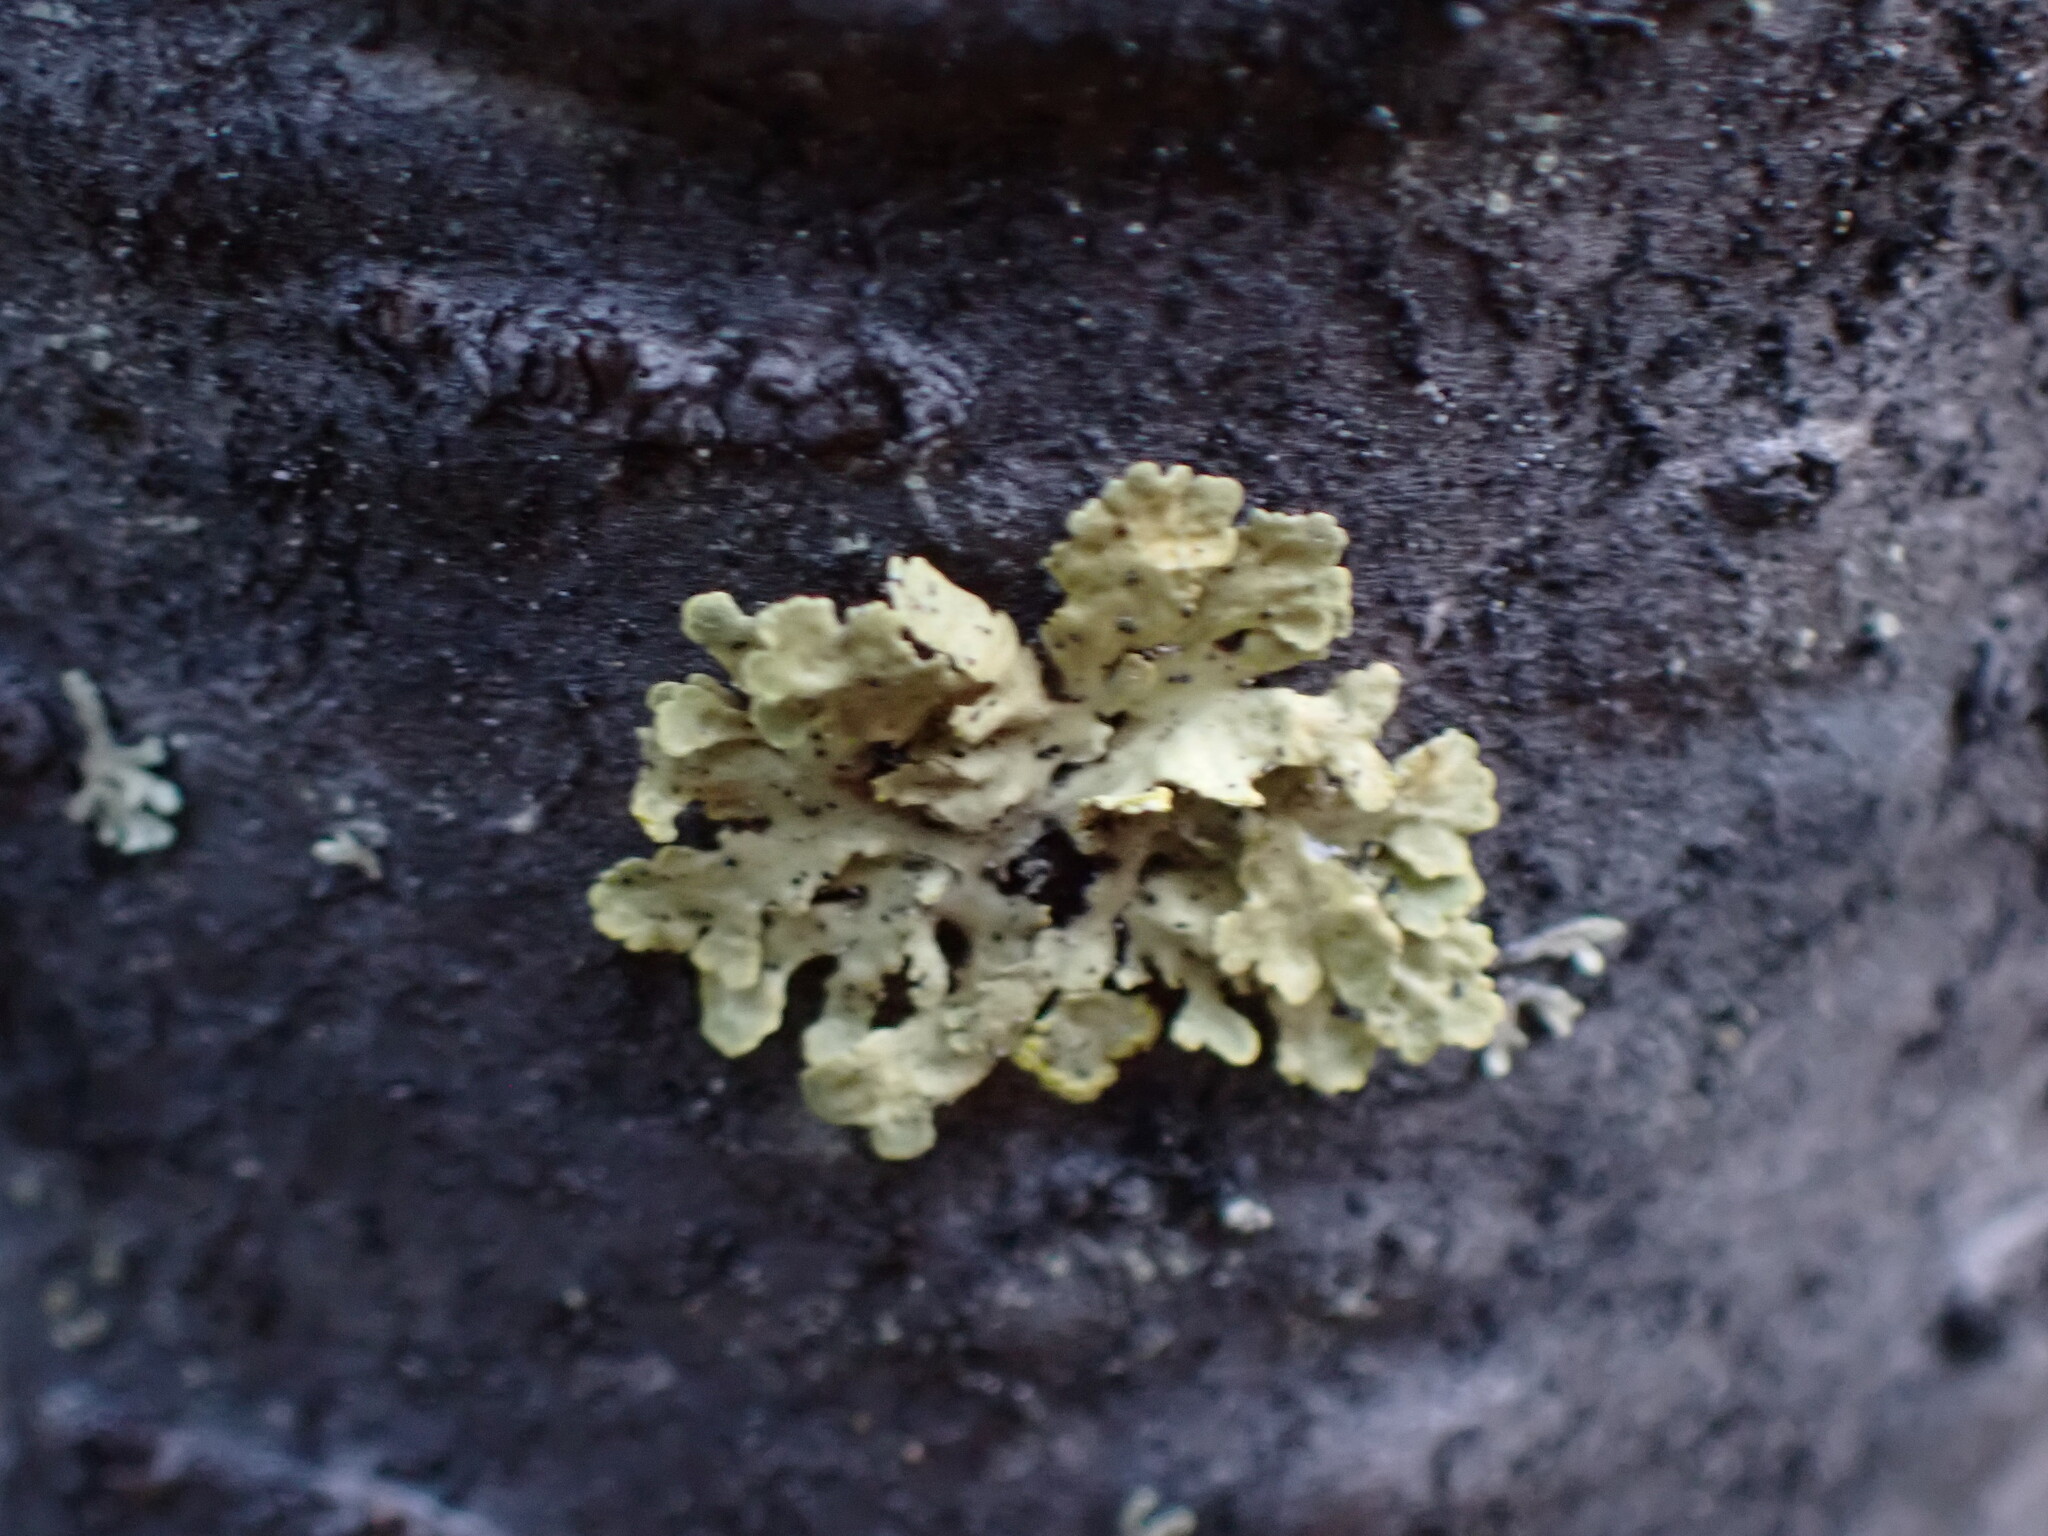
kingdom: Fungi
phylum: Ascomycota
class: Lecanoromycetes
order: Lecanorales
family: Parmeliaceae
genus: Vulpicida
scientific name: Vulpicida pinastri
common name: Powdered sunshine lichen
